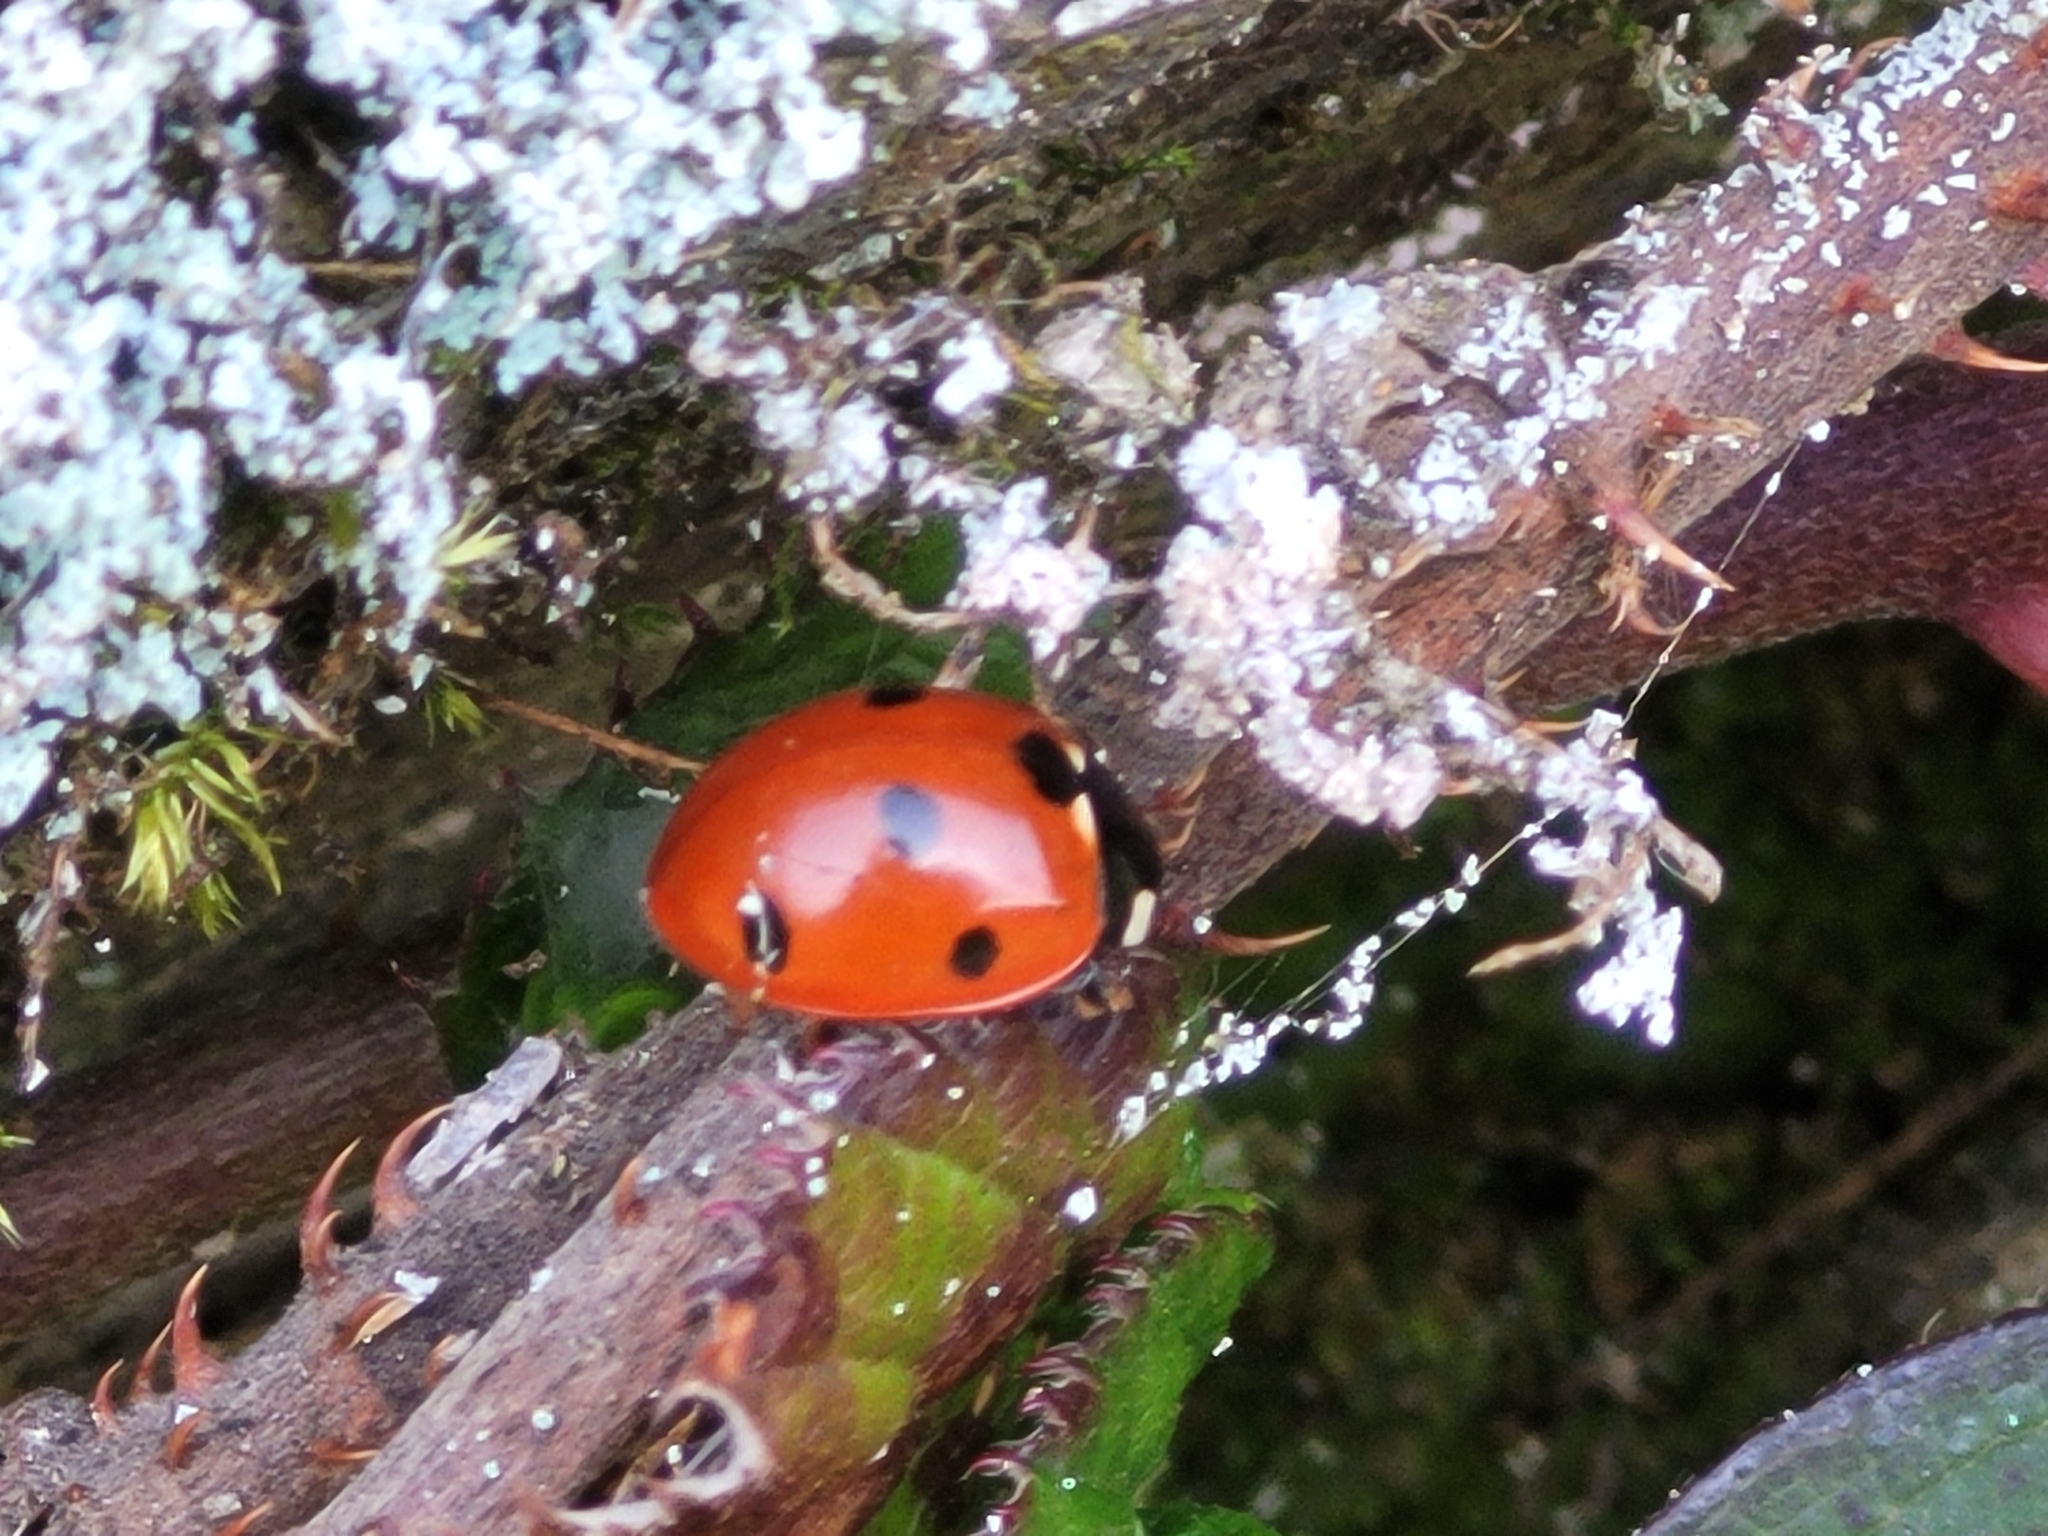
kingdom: Animalia
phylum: Arthropoda
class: Insecta
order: Coleoptera
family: Coccinellidae
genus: Coccinella
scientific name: Coccinella septempunctata
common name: Sevenspotted lady beetle
